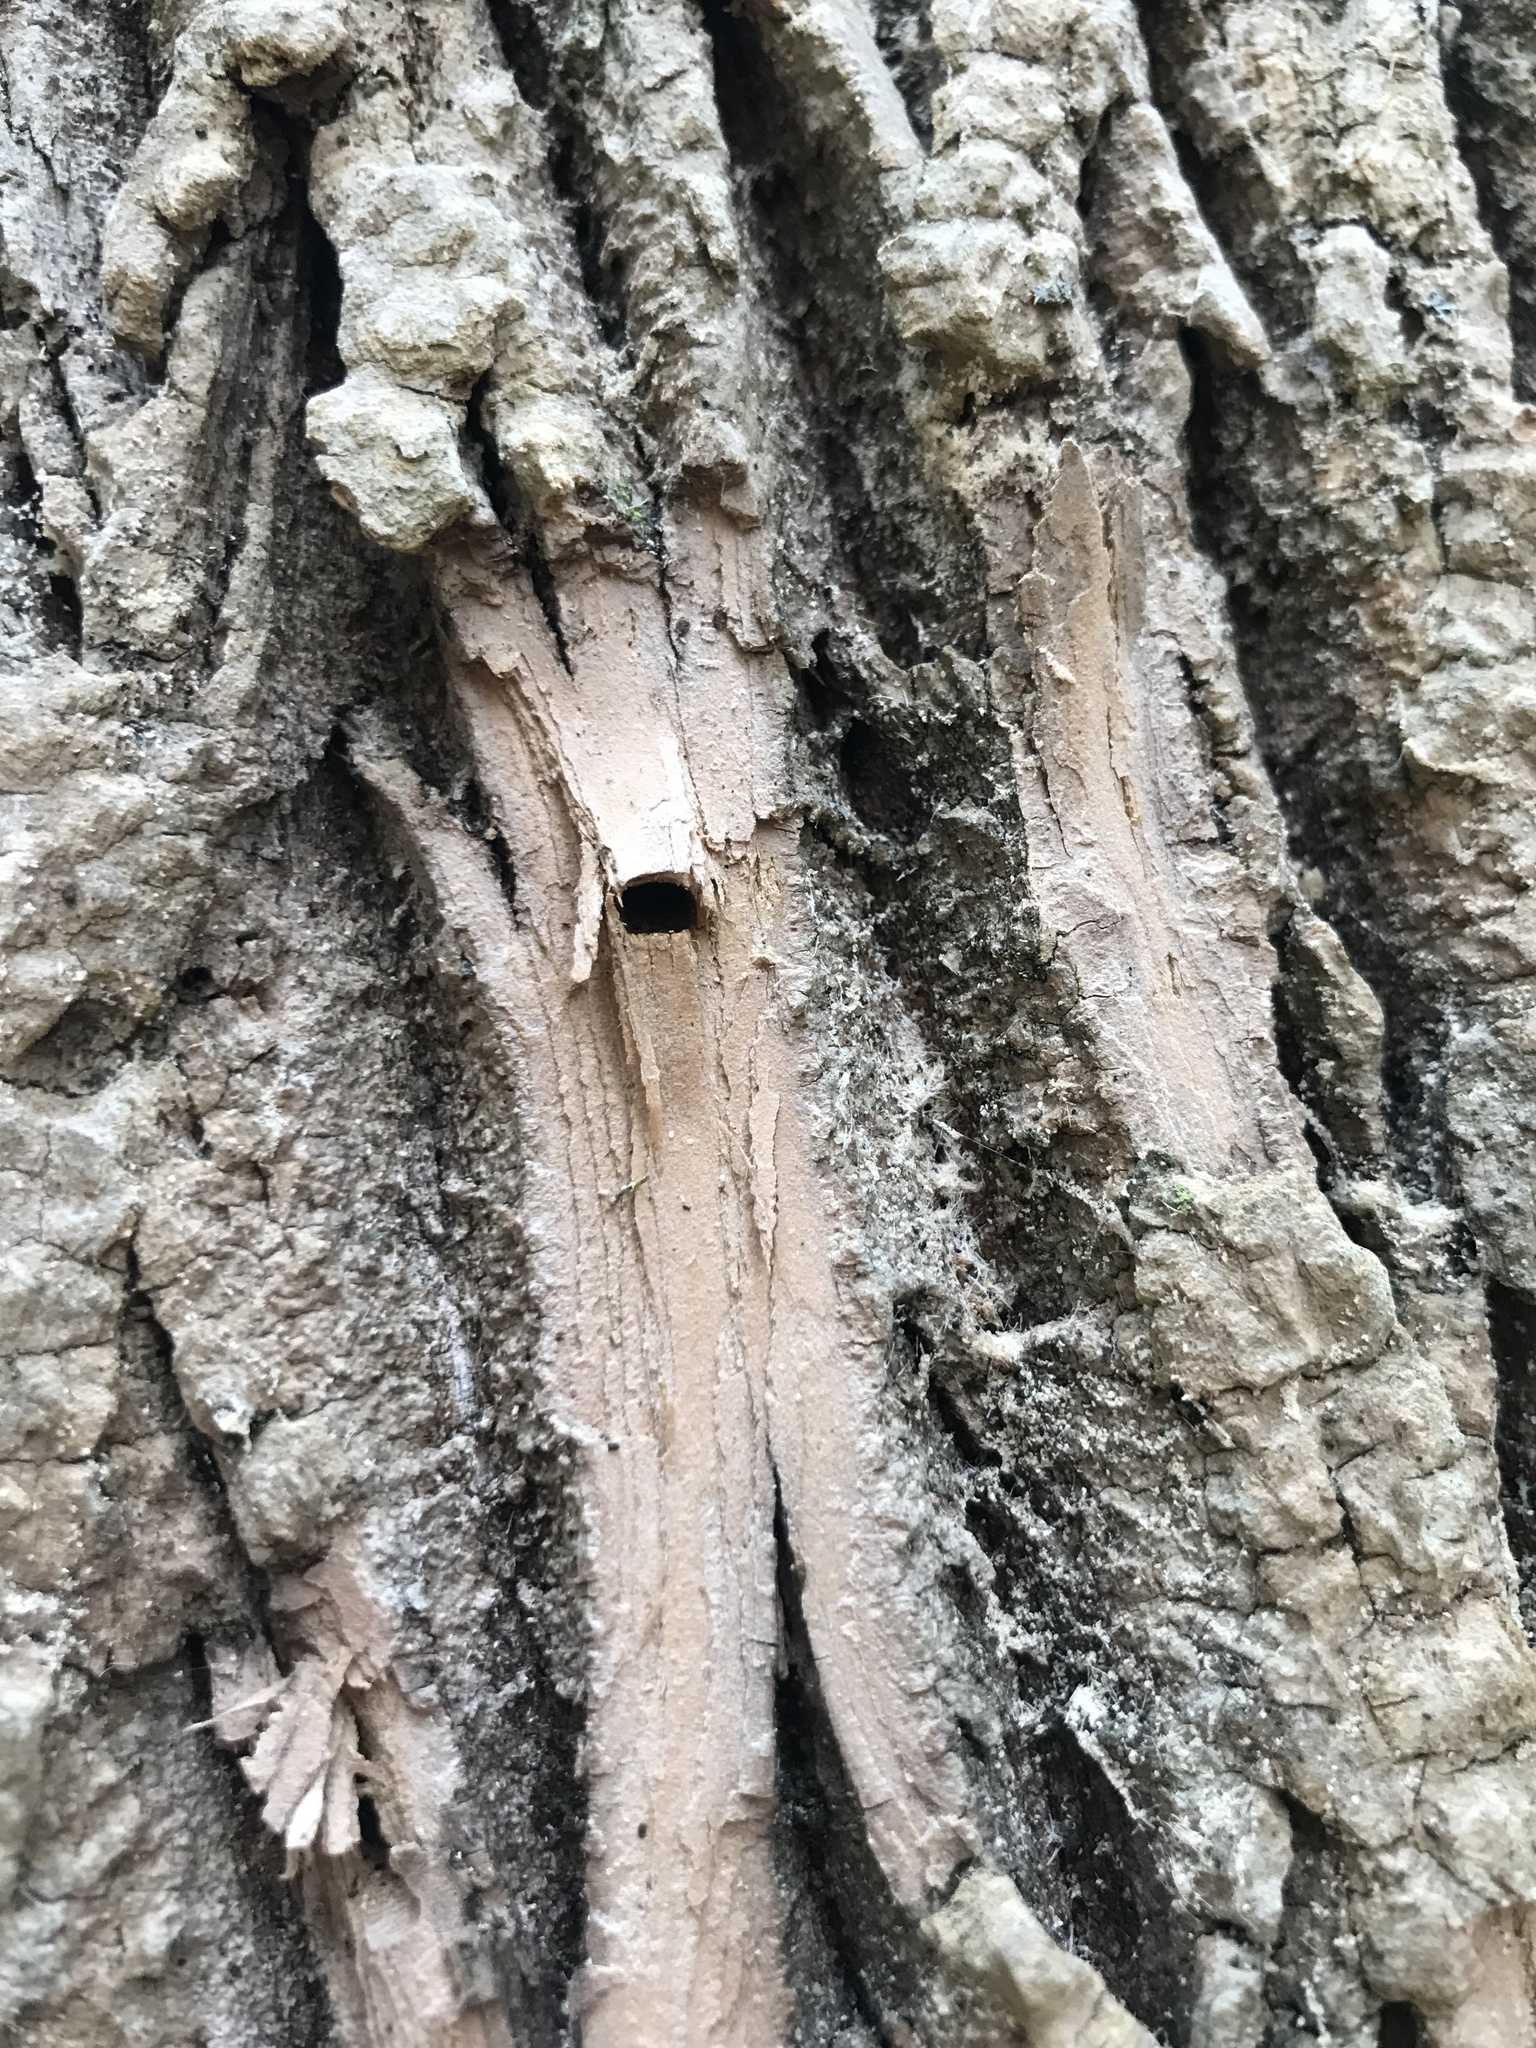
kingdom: Animalia
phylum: Arthropoda
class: Insecta
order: Coleoptera
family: Buprestidae
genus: Agrilus
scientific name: Agrilus planipennis
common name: Emerald ash borer
